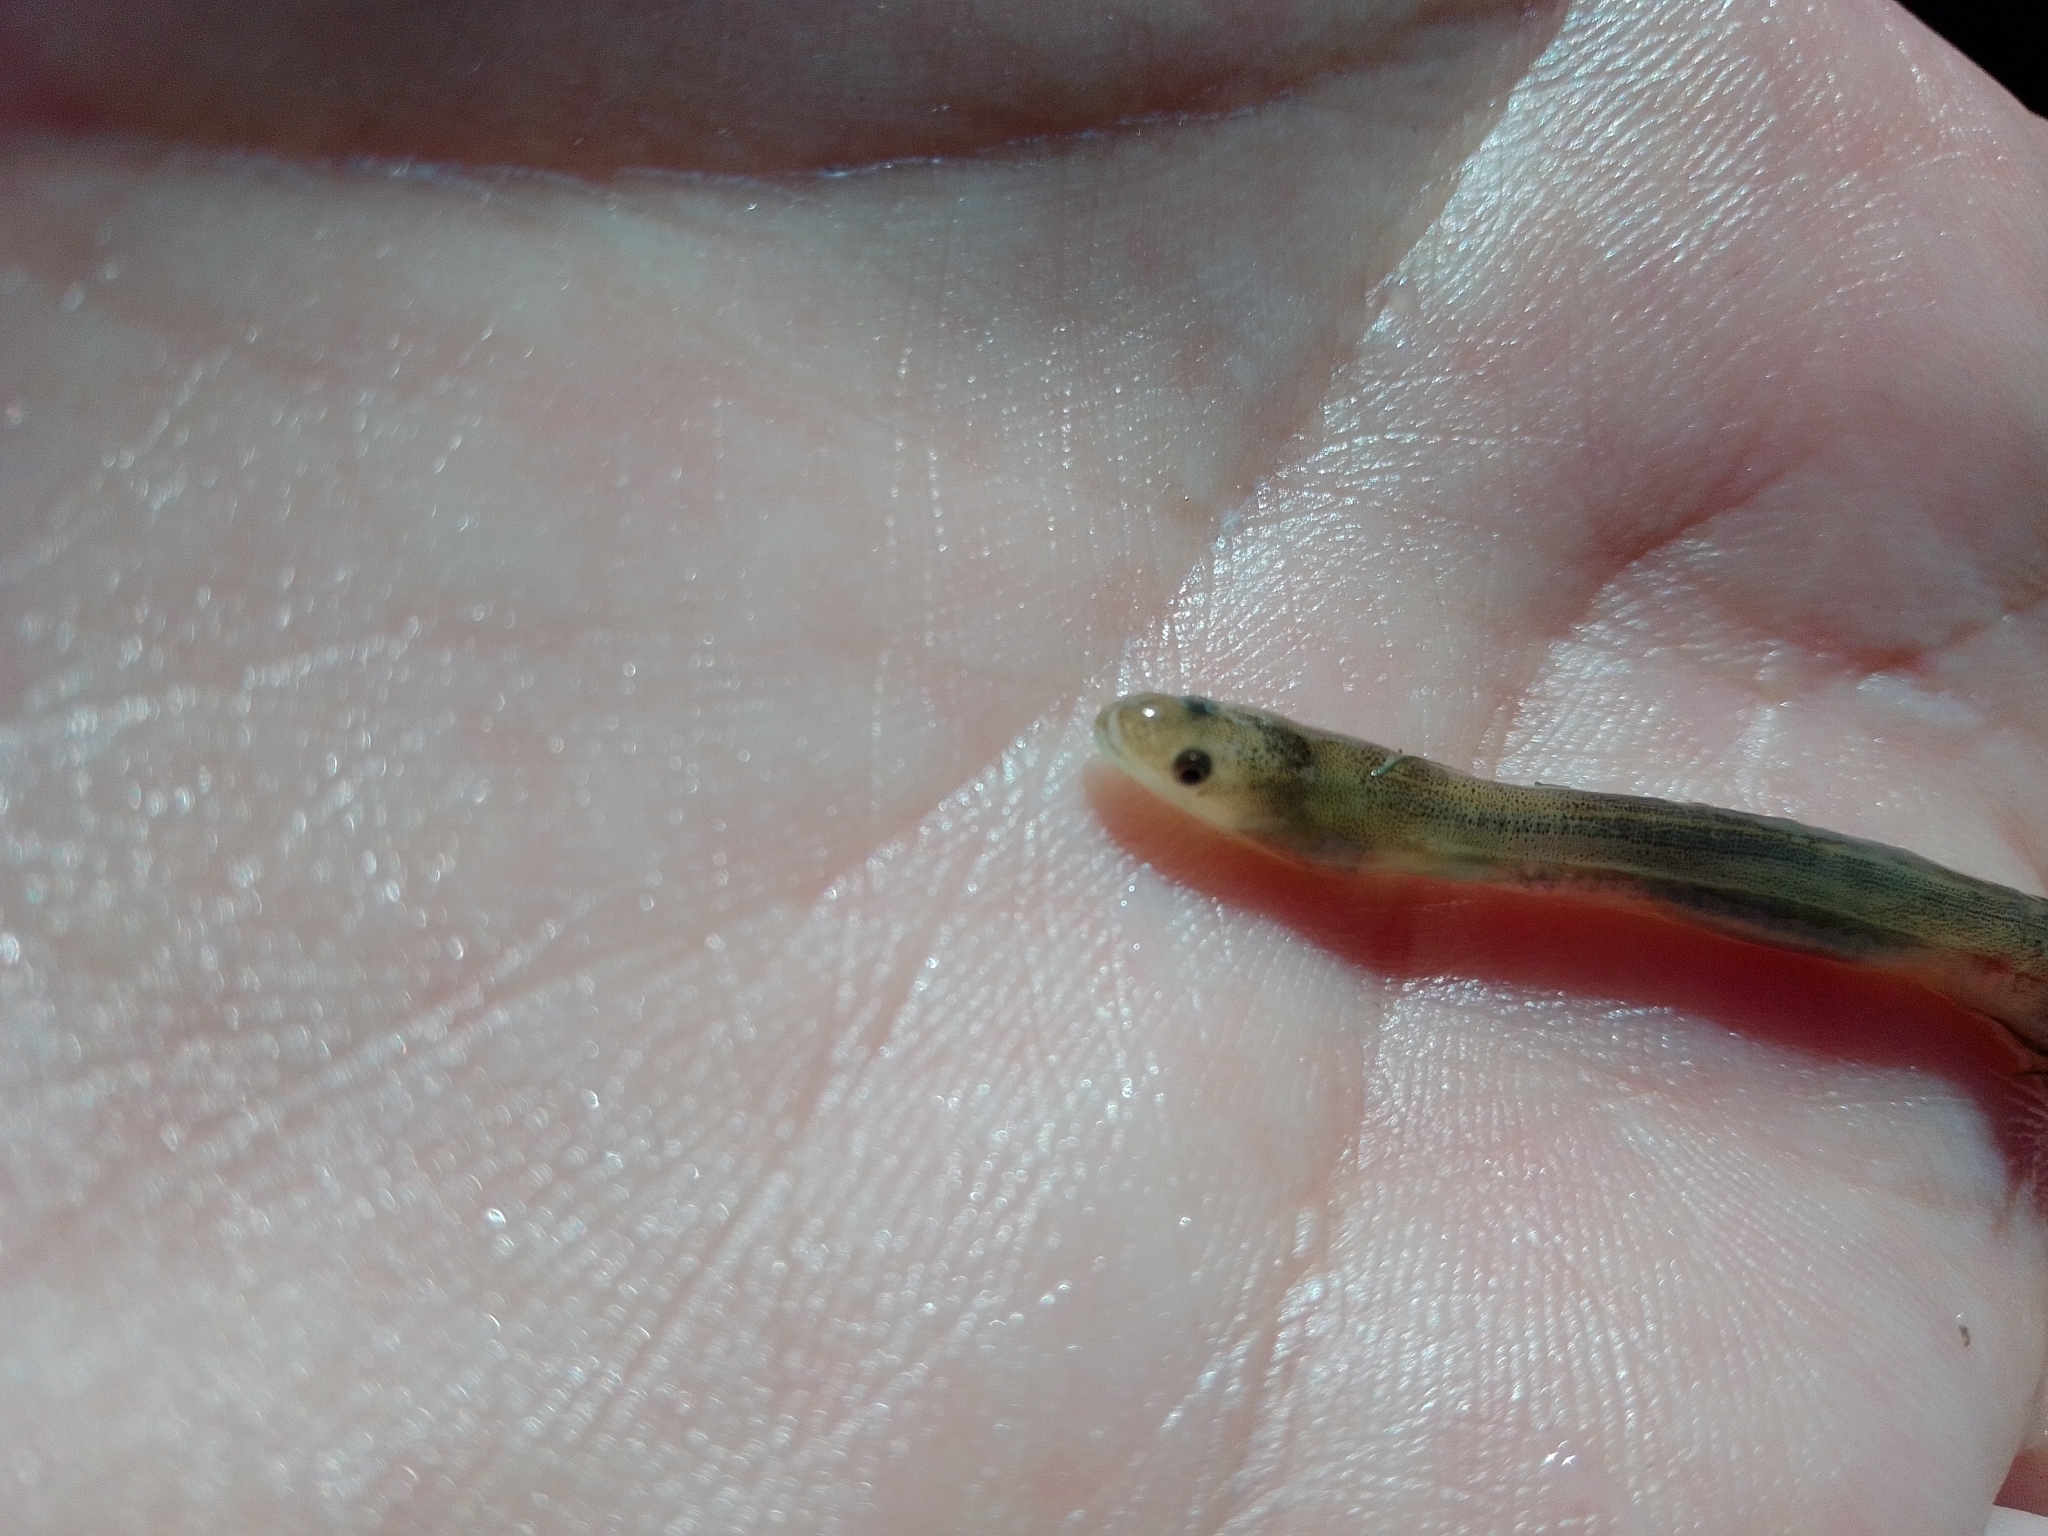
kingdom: Animalia
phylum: Chordata
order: Anguilliformes
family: Anguillidae
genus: Anguilla
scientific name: Anguilla anguilla
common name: European eel
